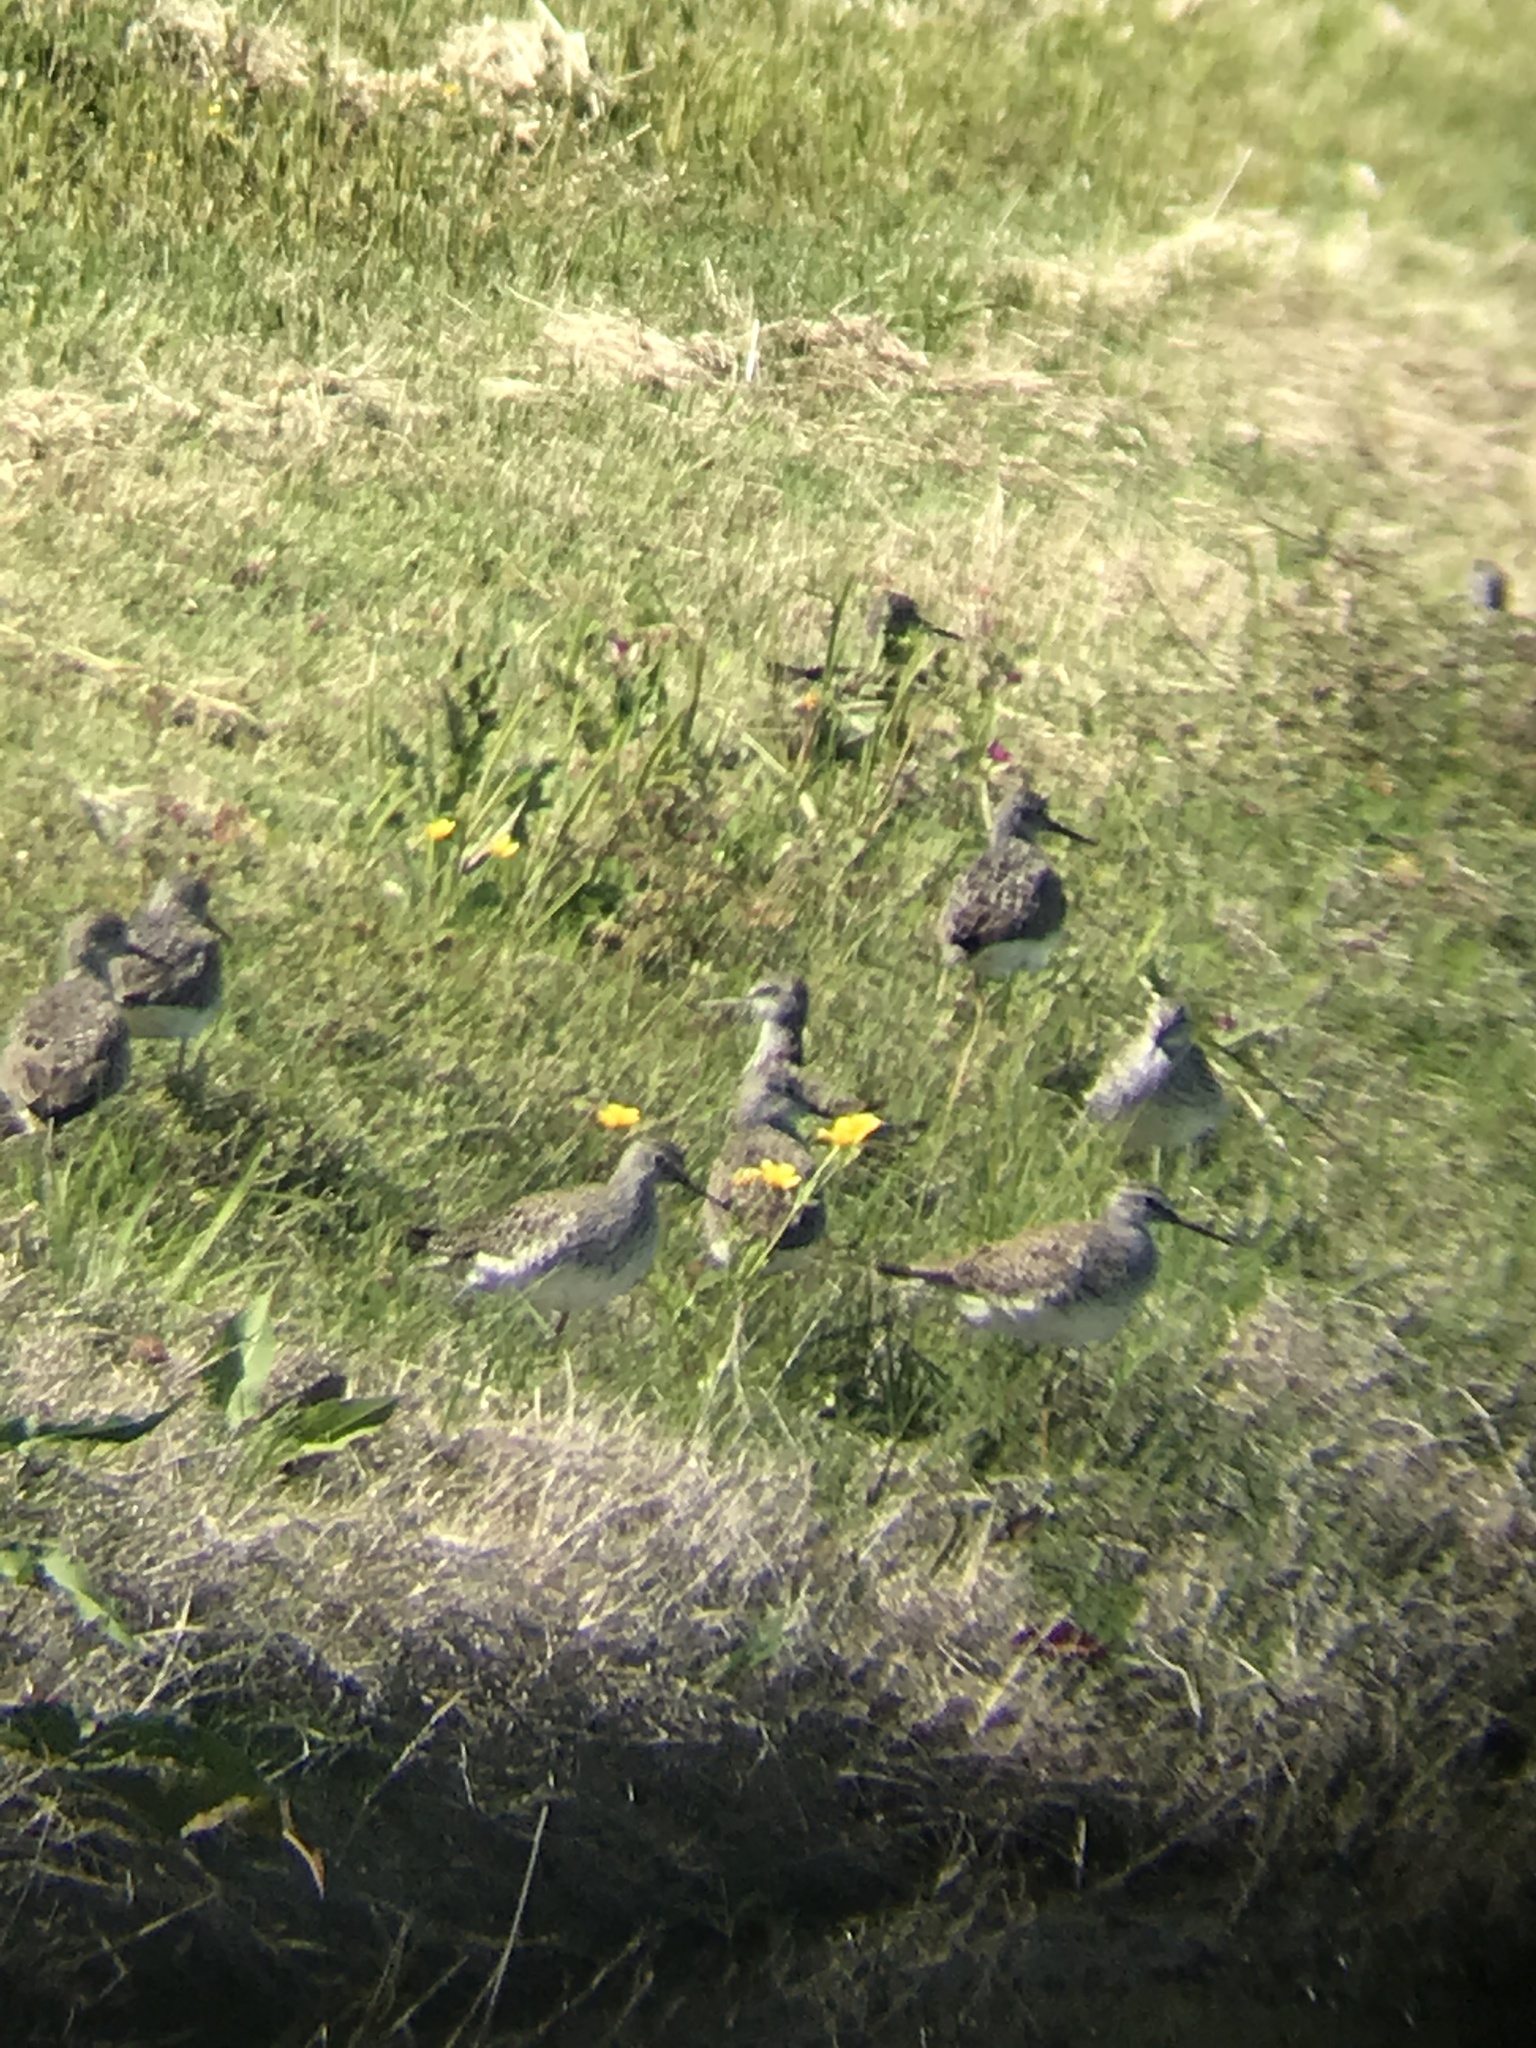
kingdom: Animalia
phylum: Chordata
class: Aves
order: Charadriiformes
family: Scolopacidae
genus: Calidris
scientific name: Calidris melanotos
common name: Pectoral sandpiper
